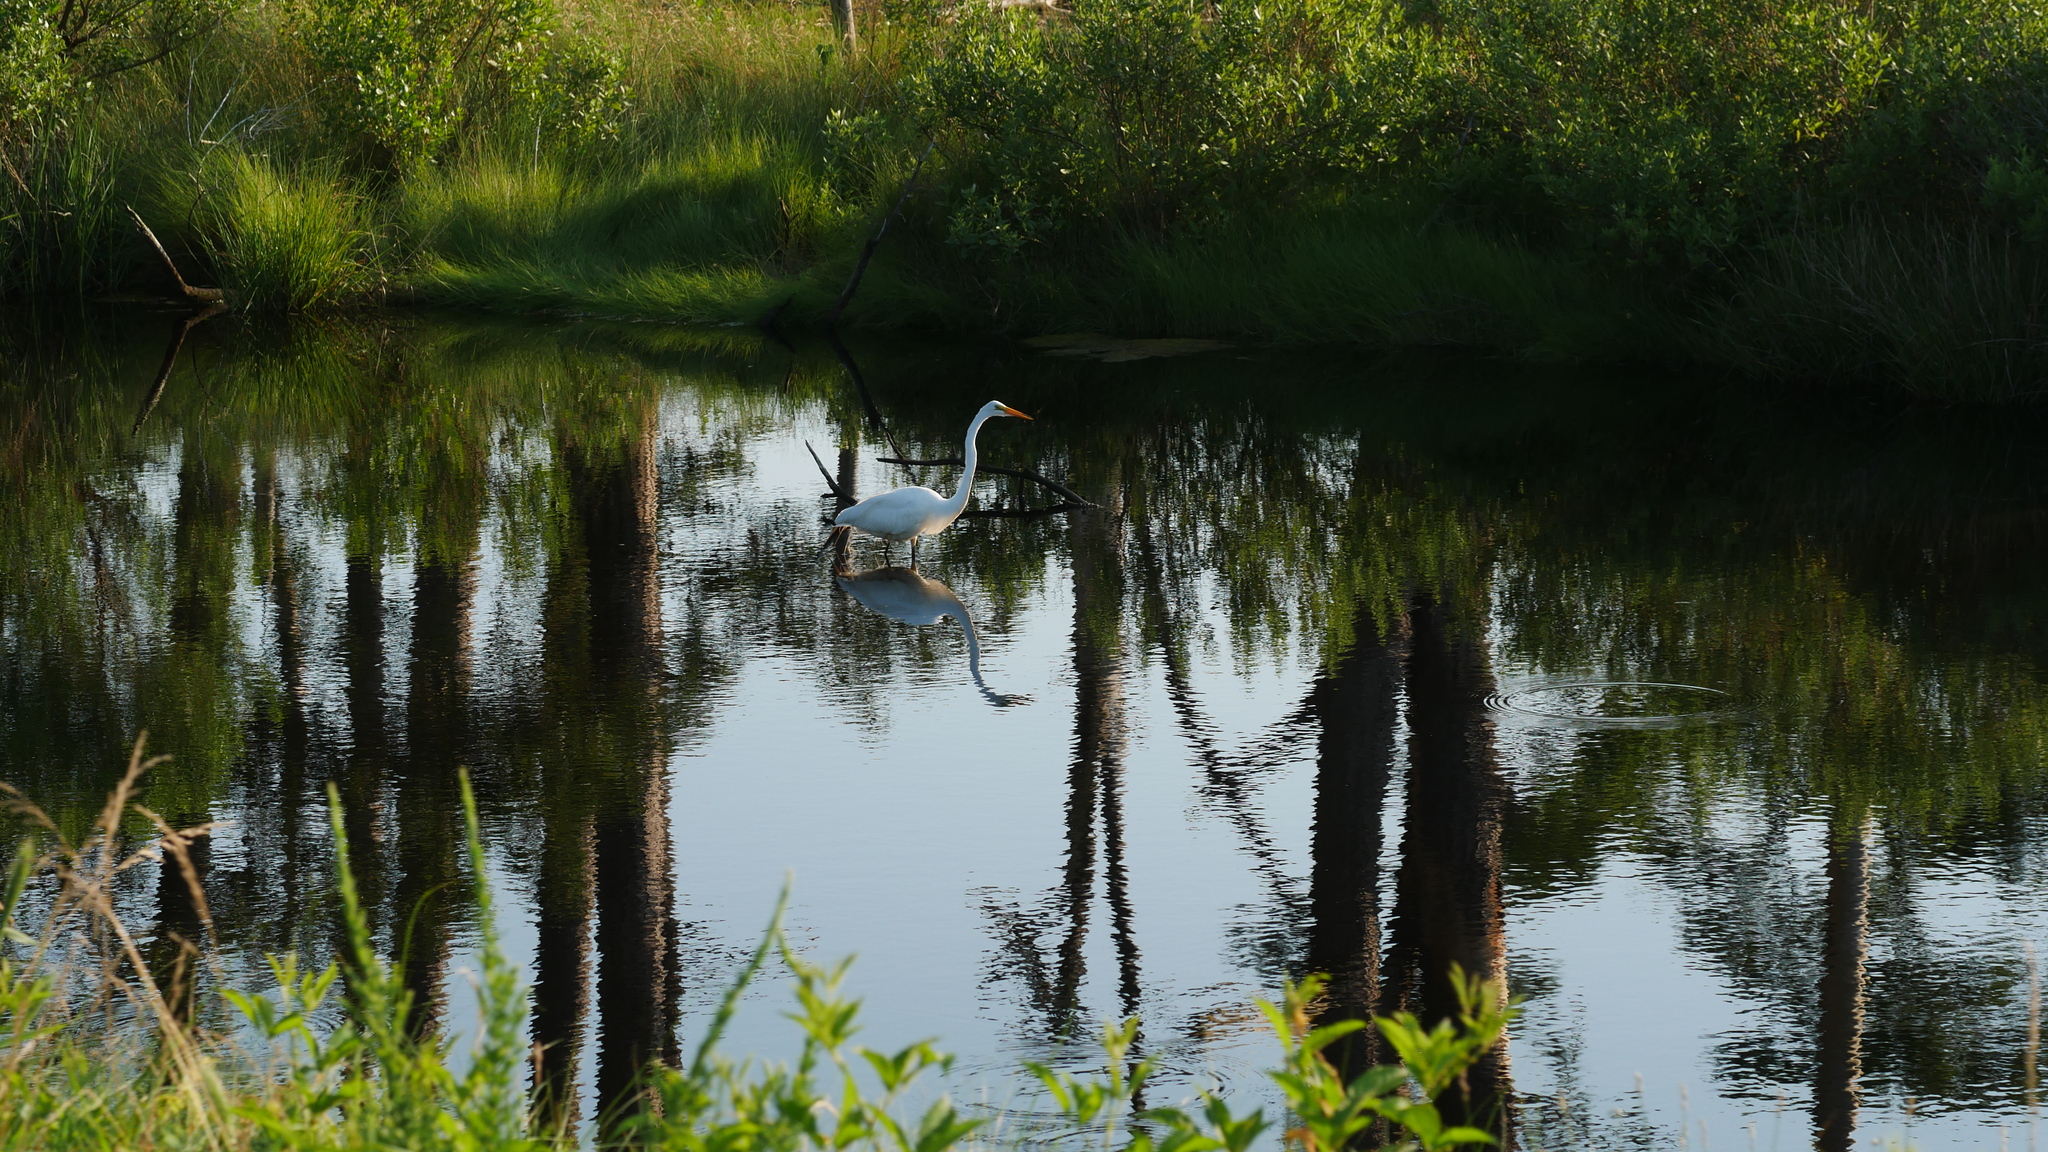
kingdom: Animalia
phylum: Chordata
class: Aves
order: Pelecaniformes
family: Ardeidae
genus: Ardea
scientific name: Ardea alba
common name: Great egret
